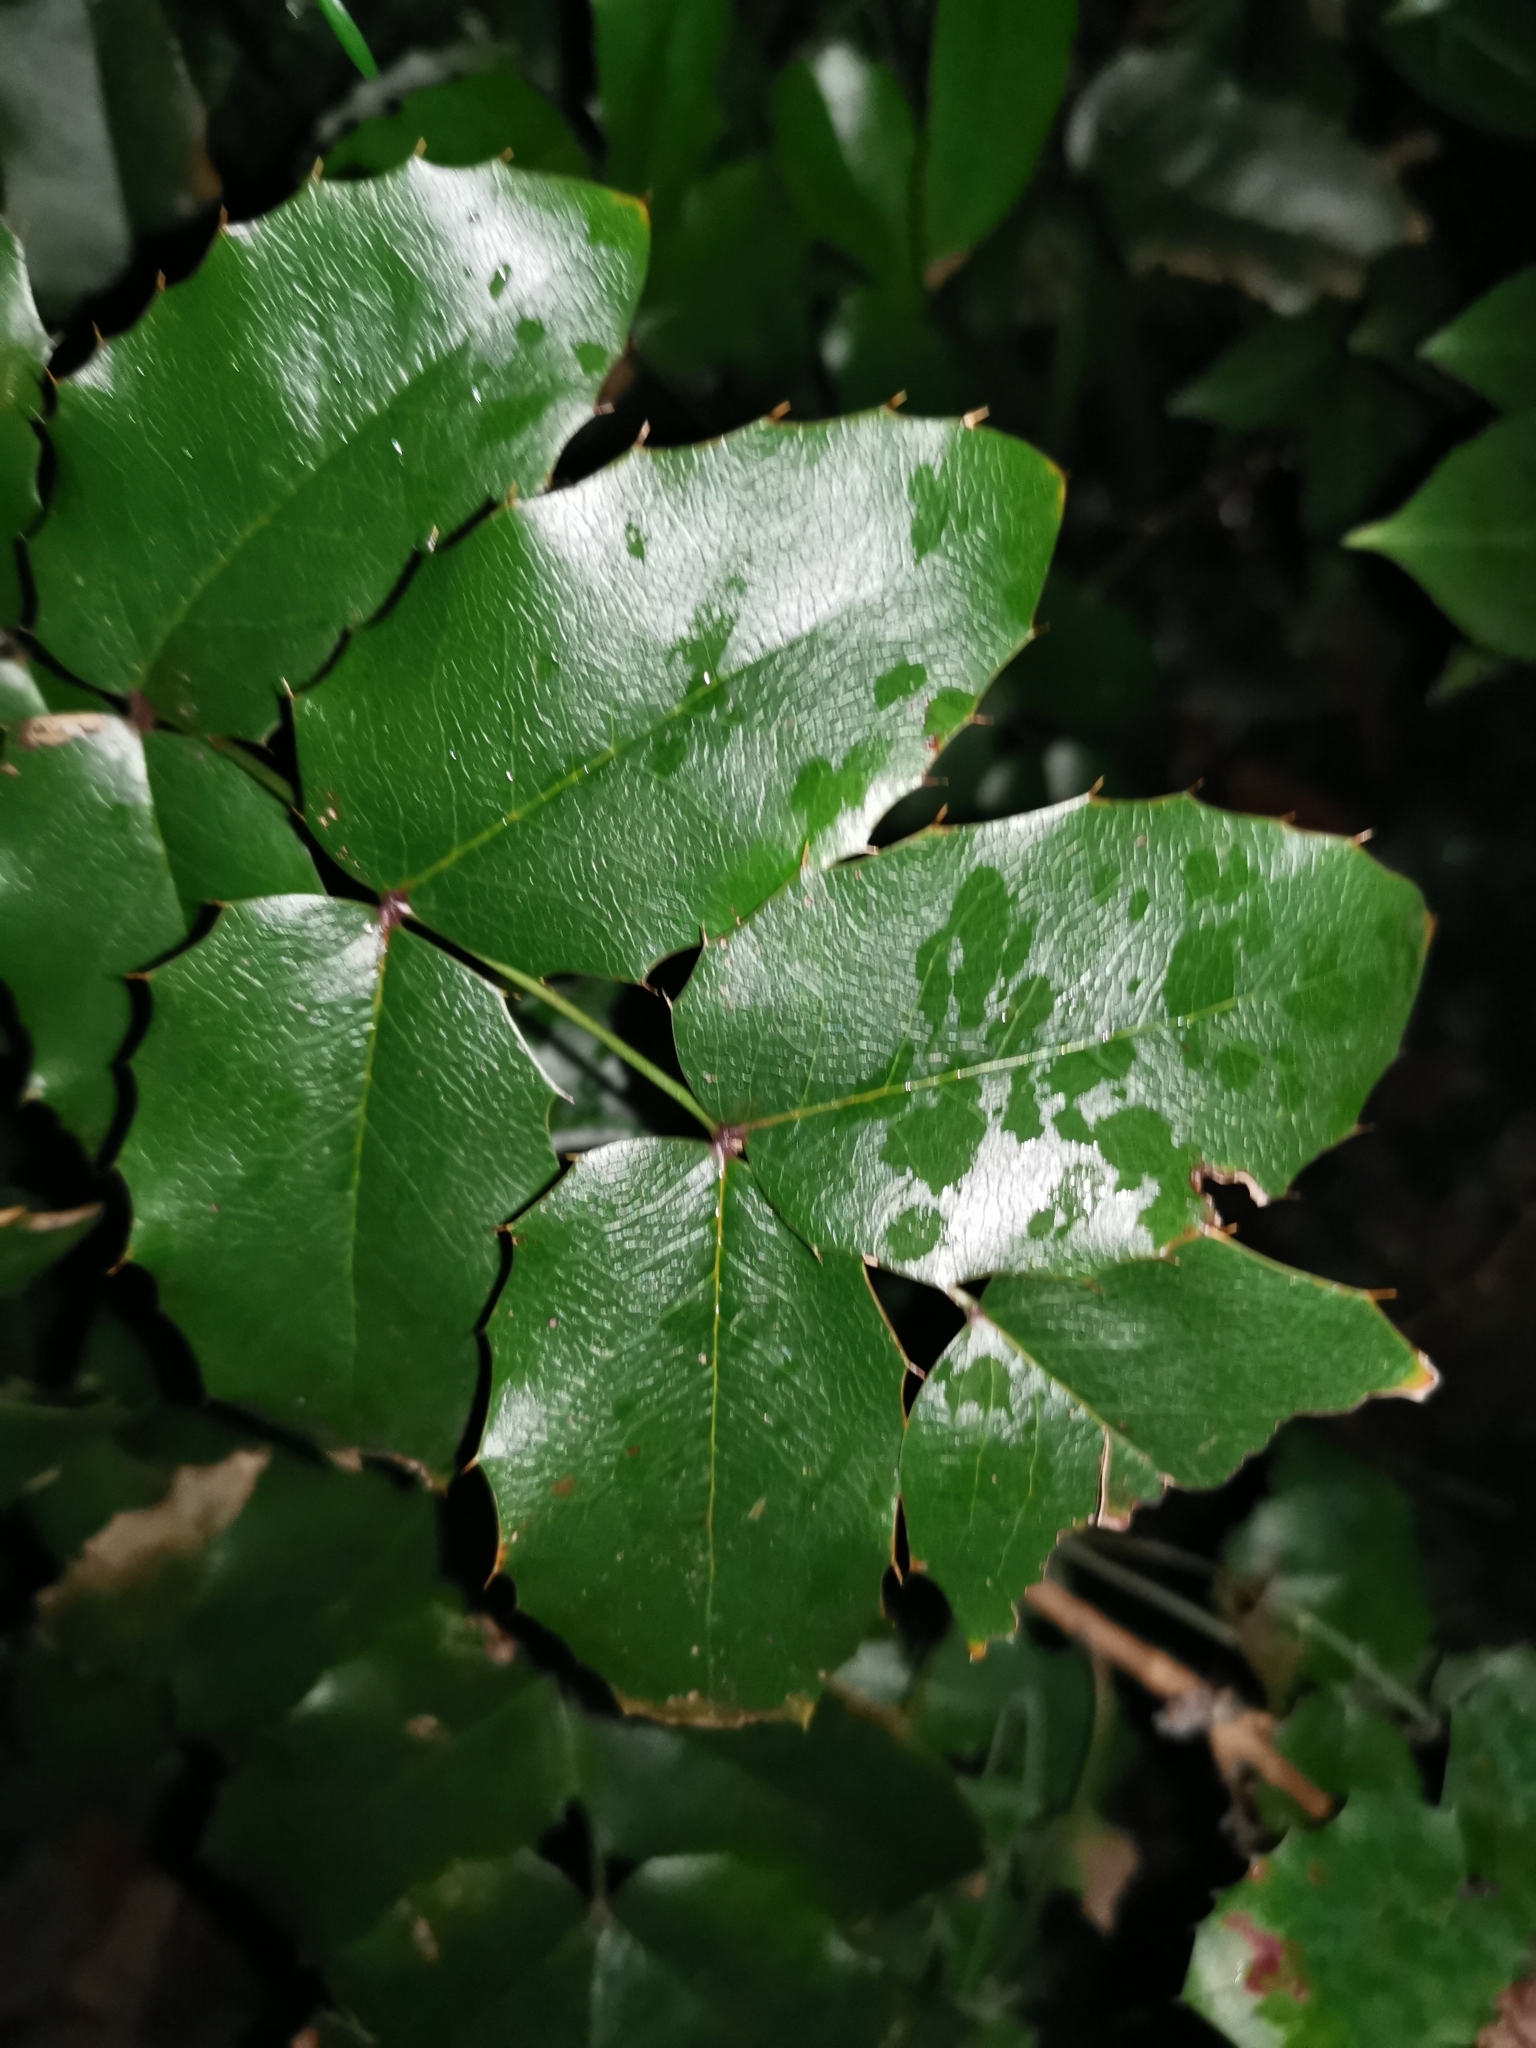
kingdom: Plantae
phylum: Tracheophyta
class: Magnoliopsida
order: Ranunculales
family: Berberidaceae
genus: Mahonia
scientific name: Mahonia aquifolium
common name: Oregon-grape
